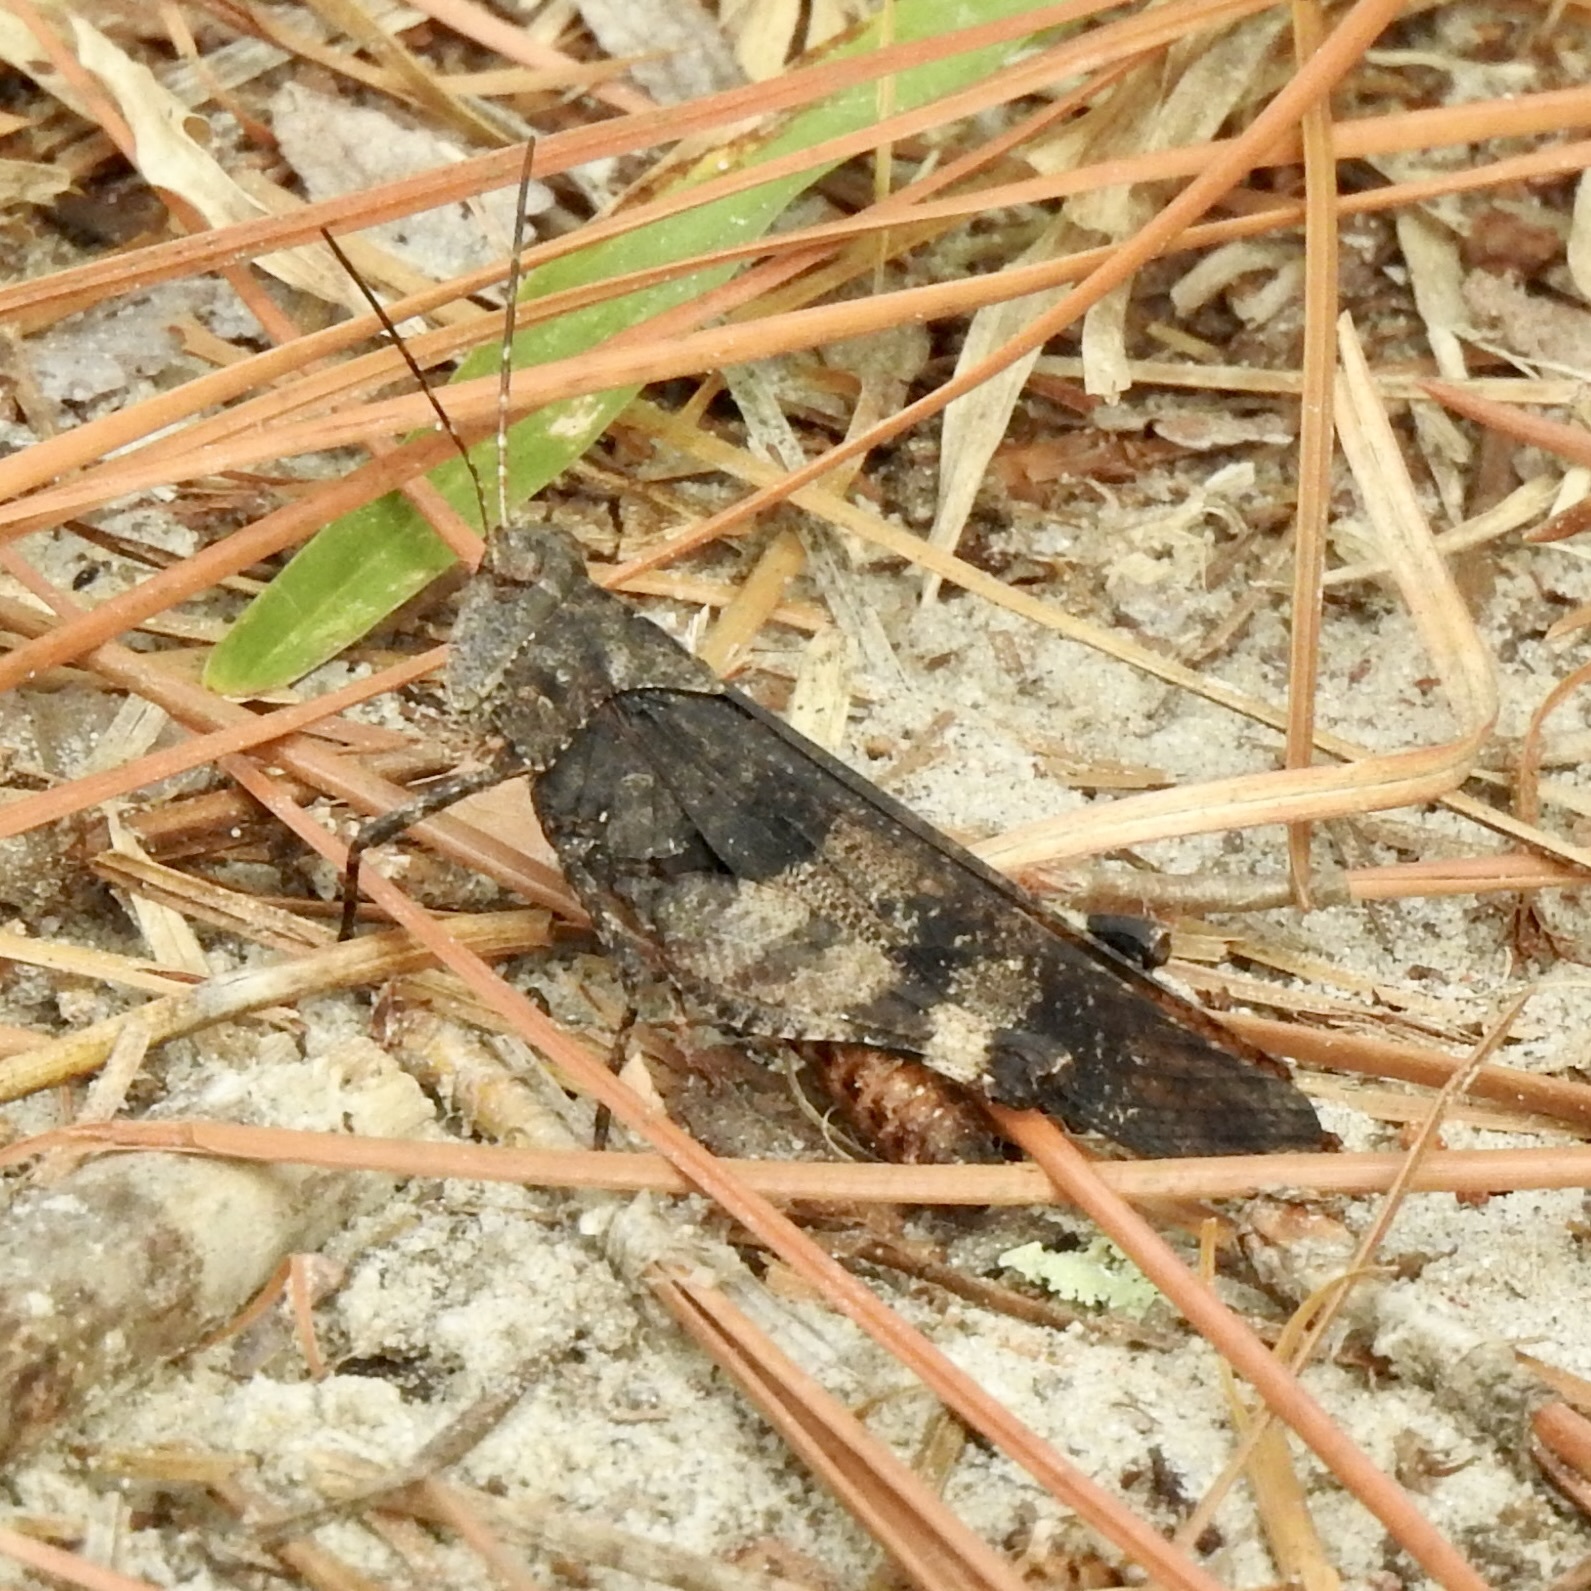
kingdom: Animalia
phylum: Arthropoda
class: Insecta
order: Orthoptera
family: Acrididae
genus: Spharagemon
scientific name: Spharagemon bolli
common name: Boll's grasshopper
